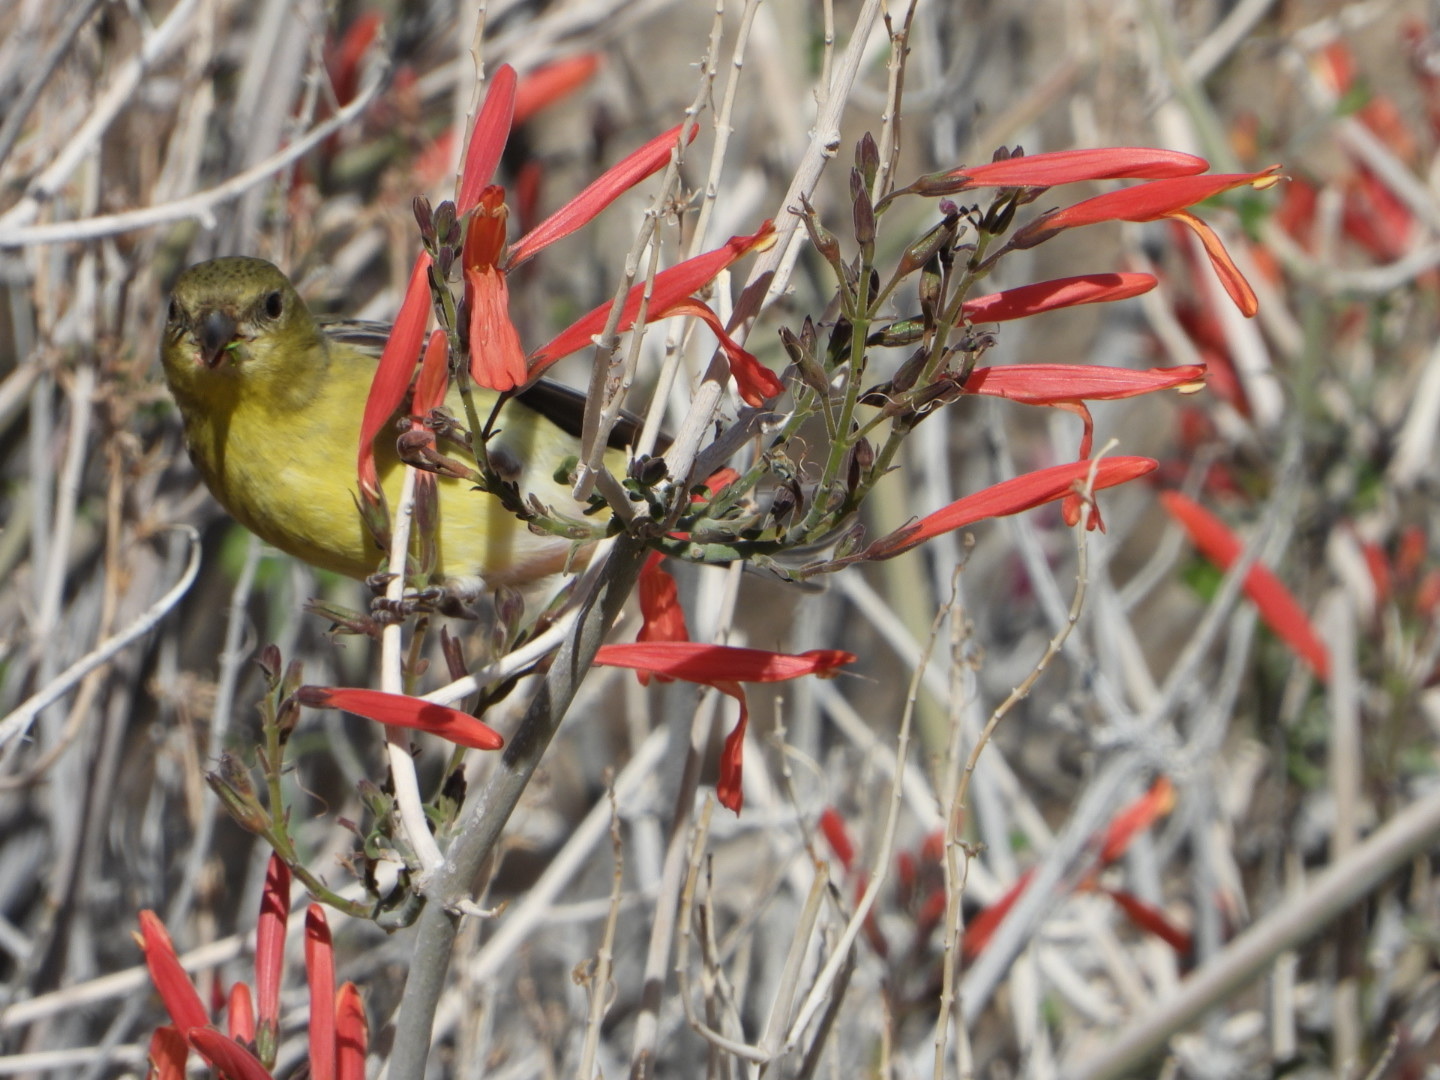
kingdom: Animalia
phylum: Chordata
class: Aves
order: Passeriformes
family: Fringillidae
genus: Spinus
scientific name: Spinus psaltria
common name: Lesser goldfinch
